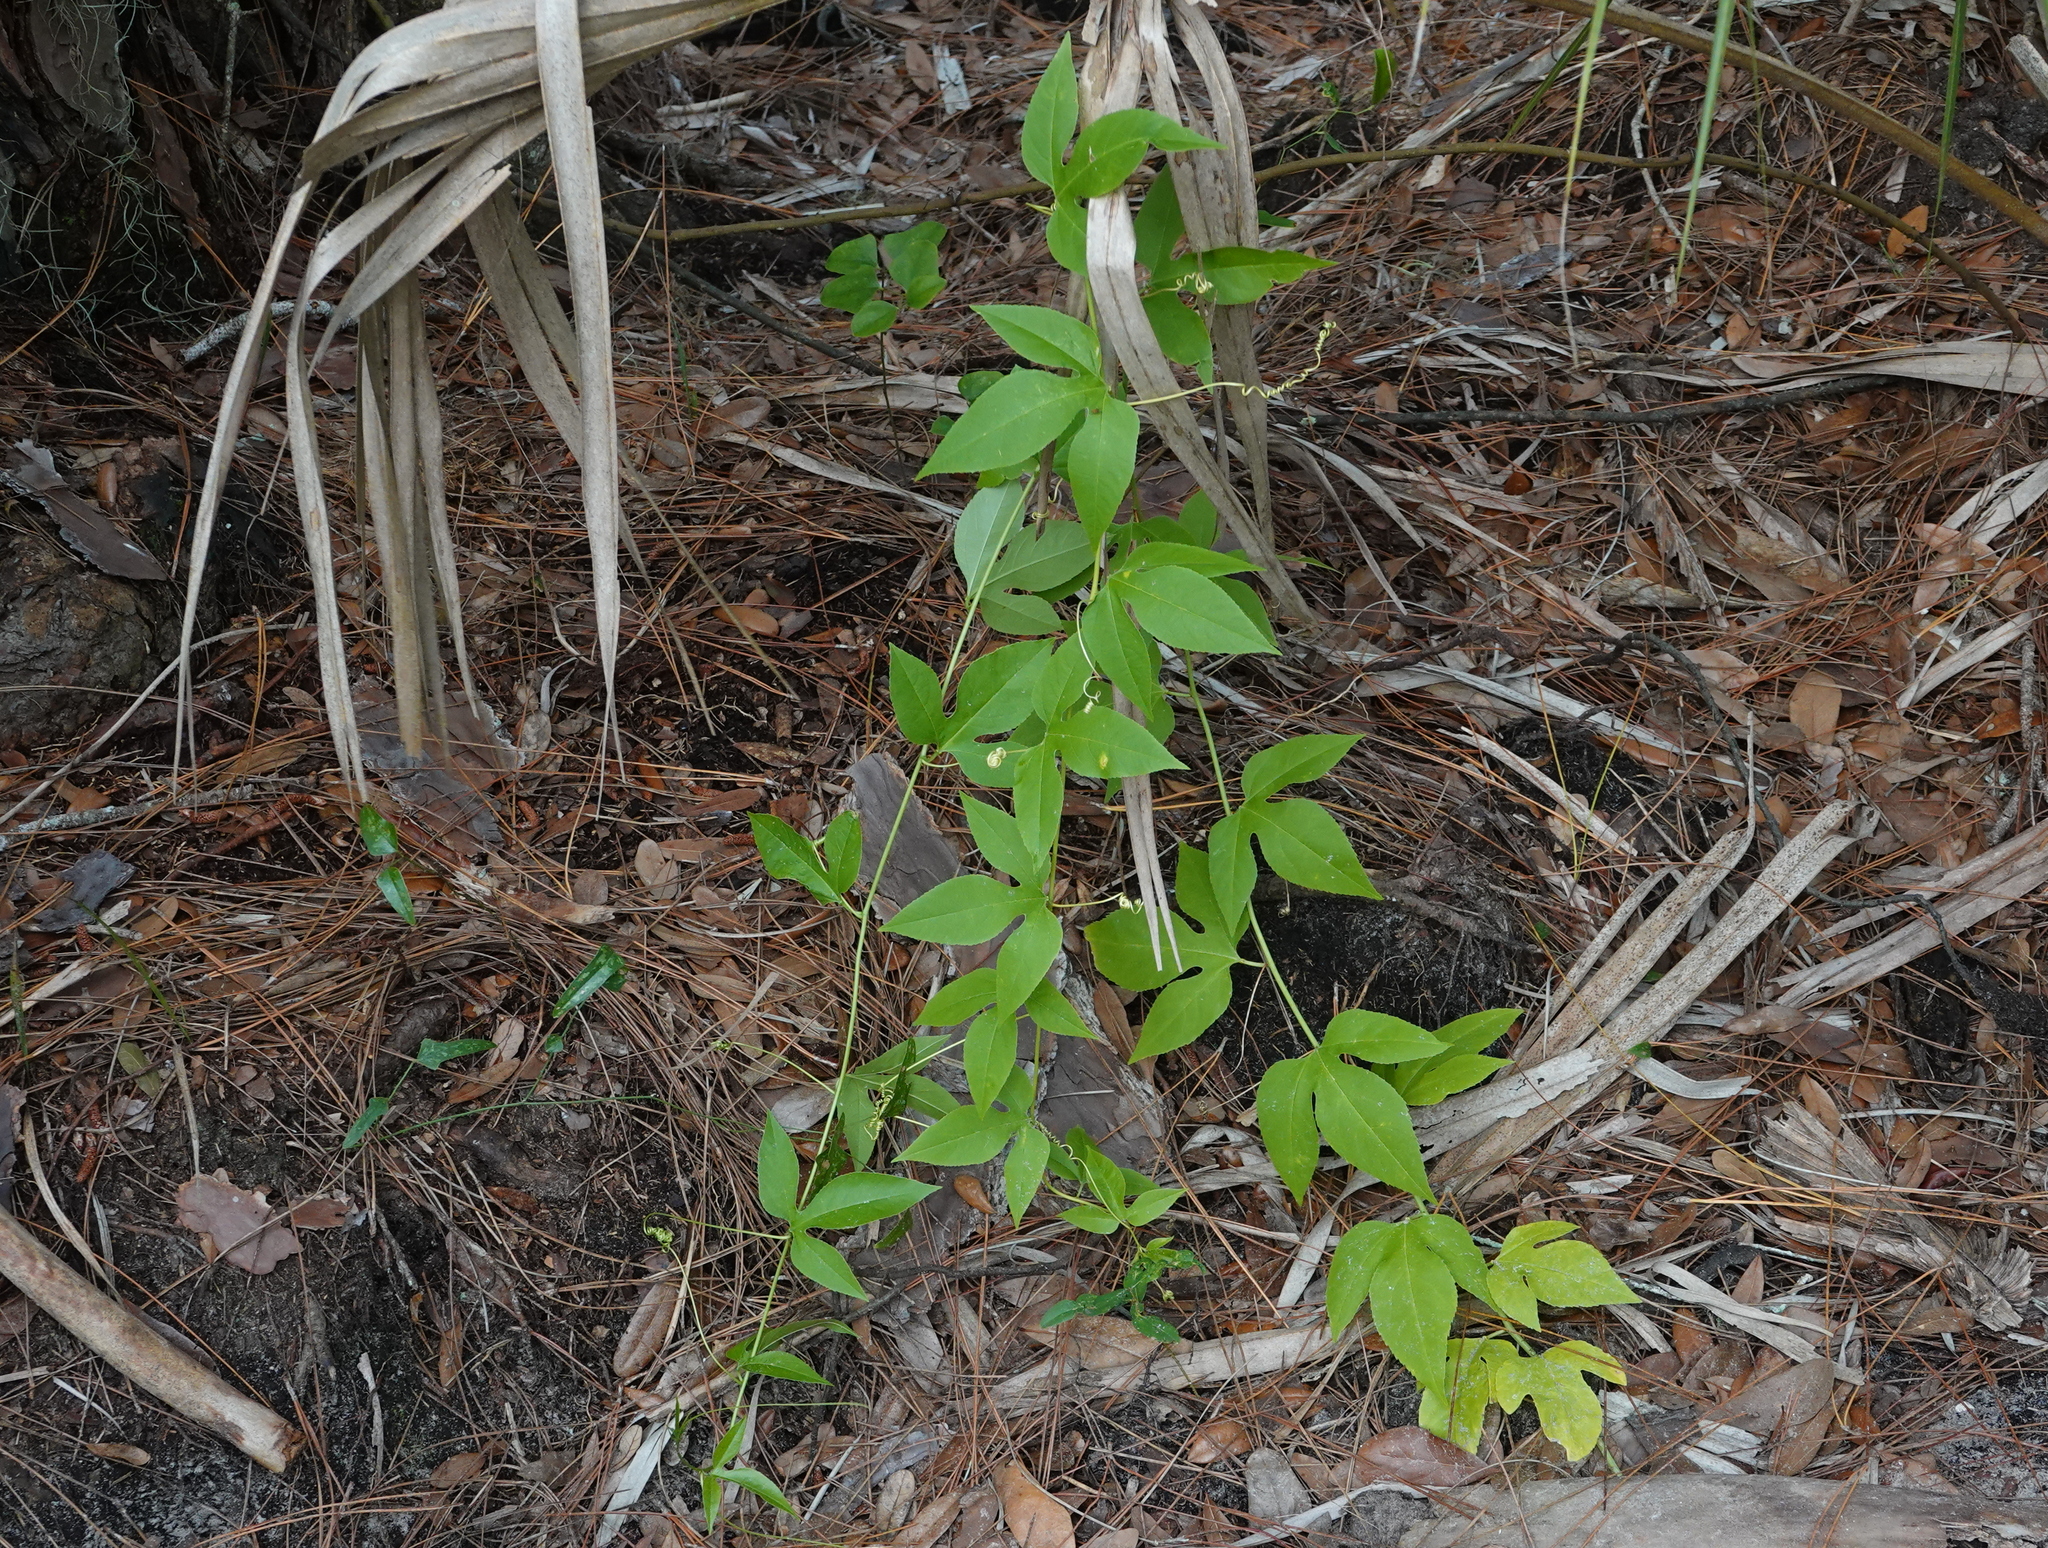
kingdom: Plantae
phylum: Tracheophyta
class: Magnoliopsida
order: Malpighiales
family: Passifloraceae
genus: Passiflora
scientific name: Passiflora incarnata
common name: Apricot-vine
